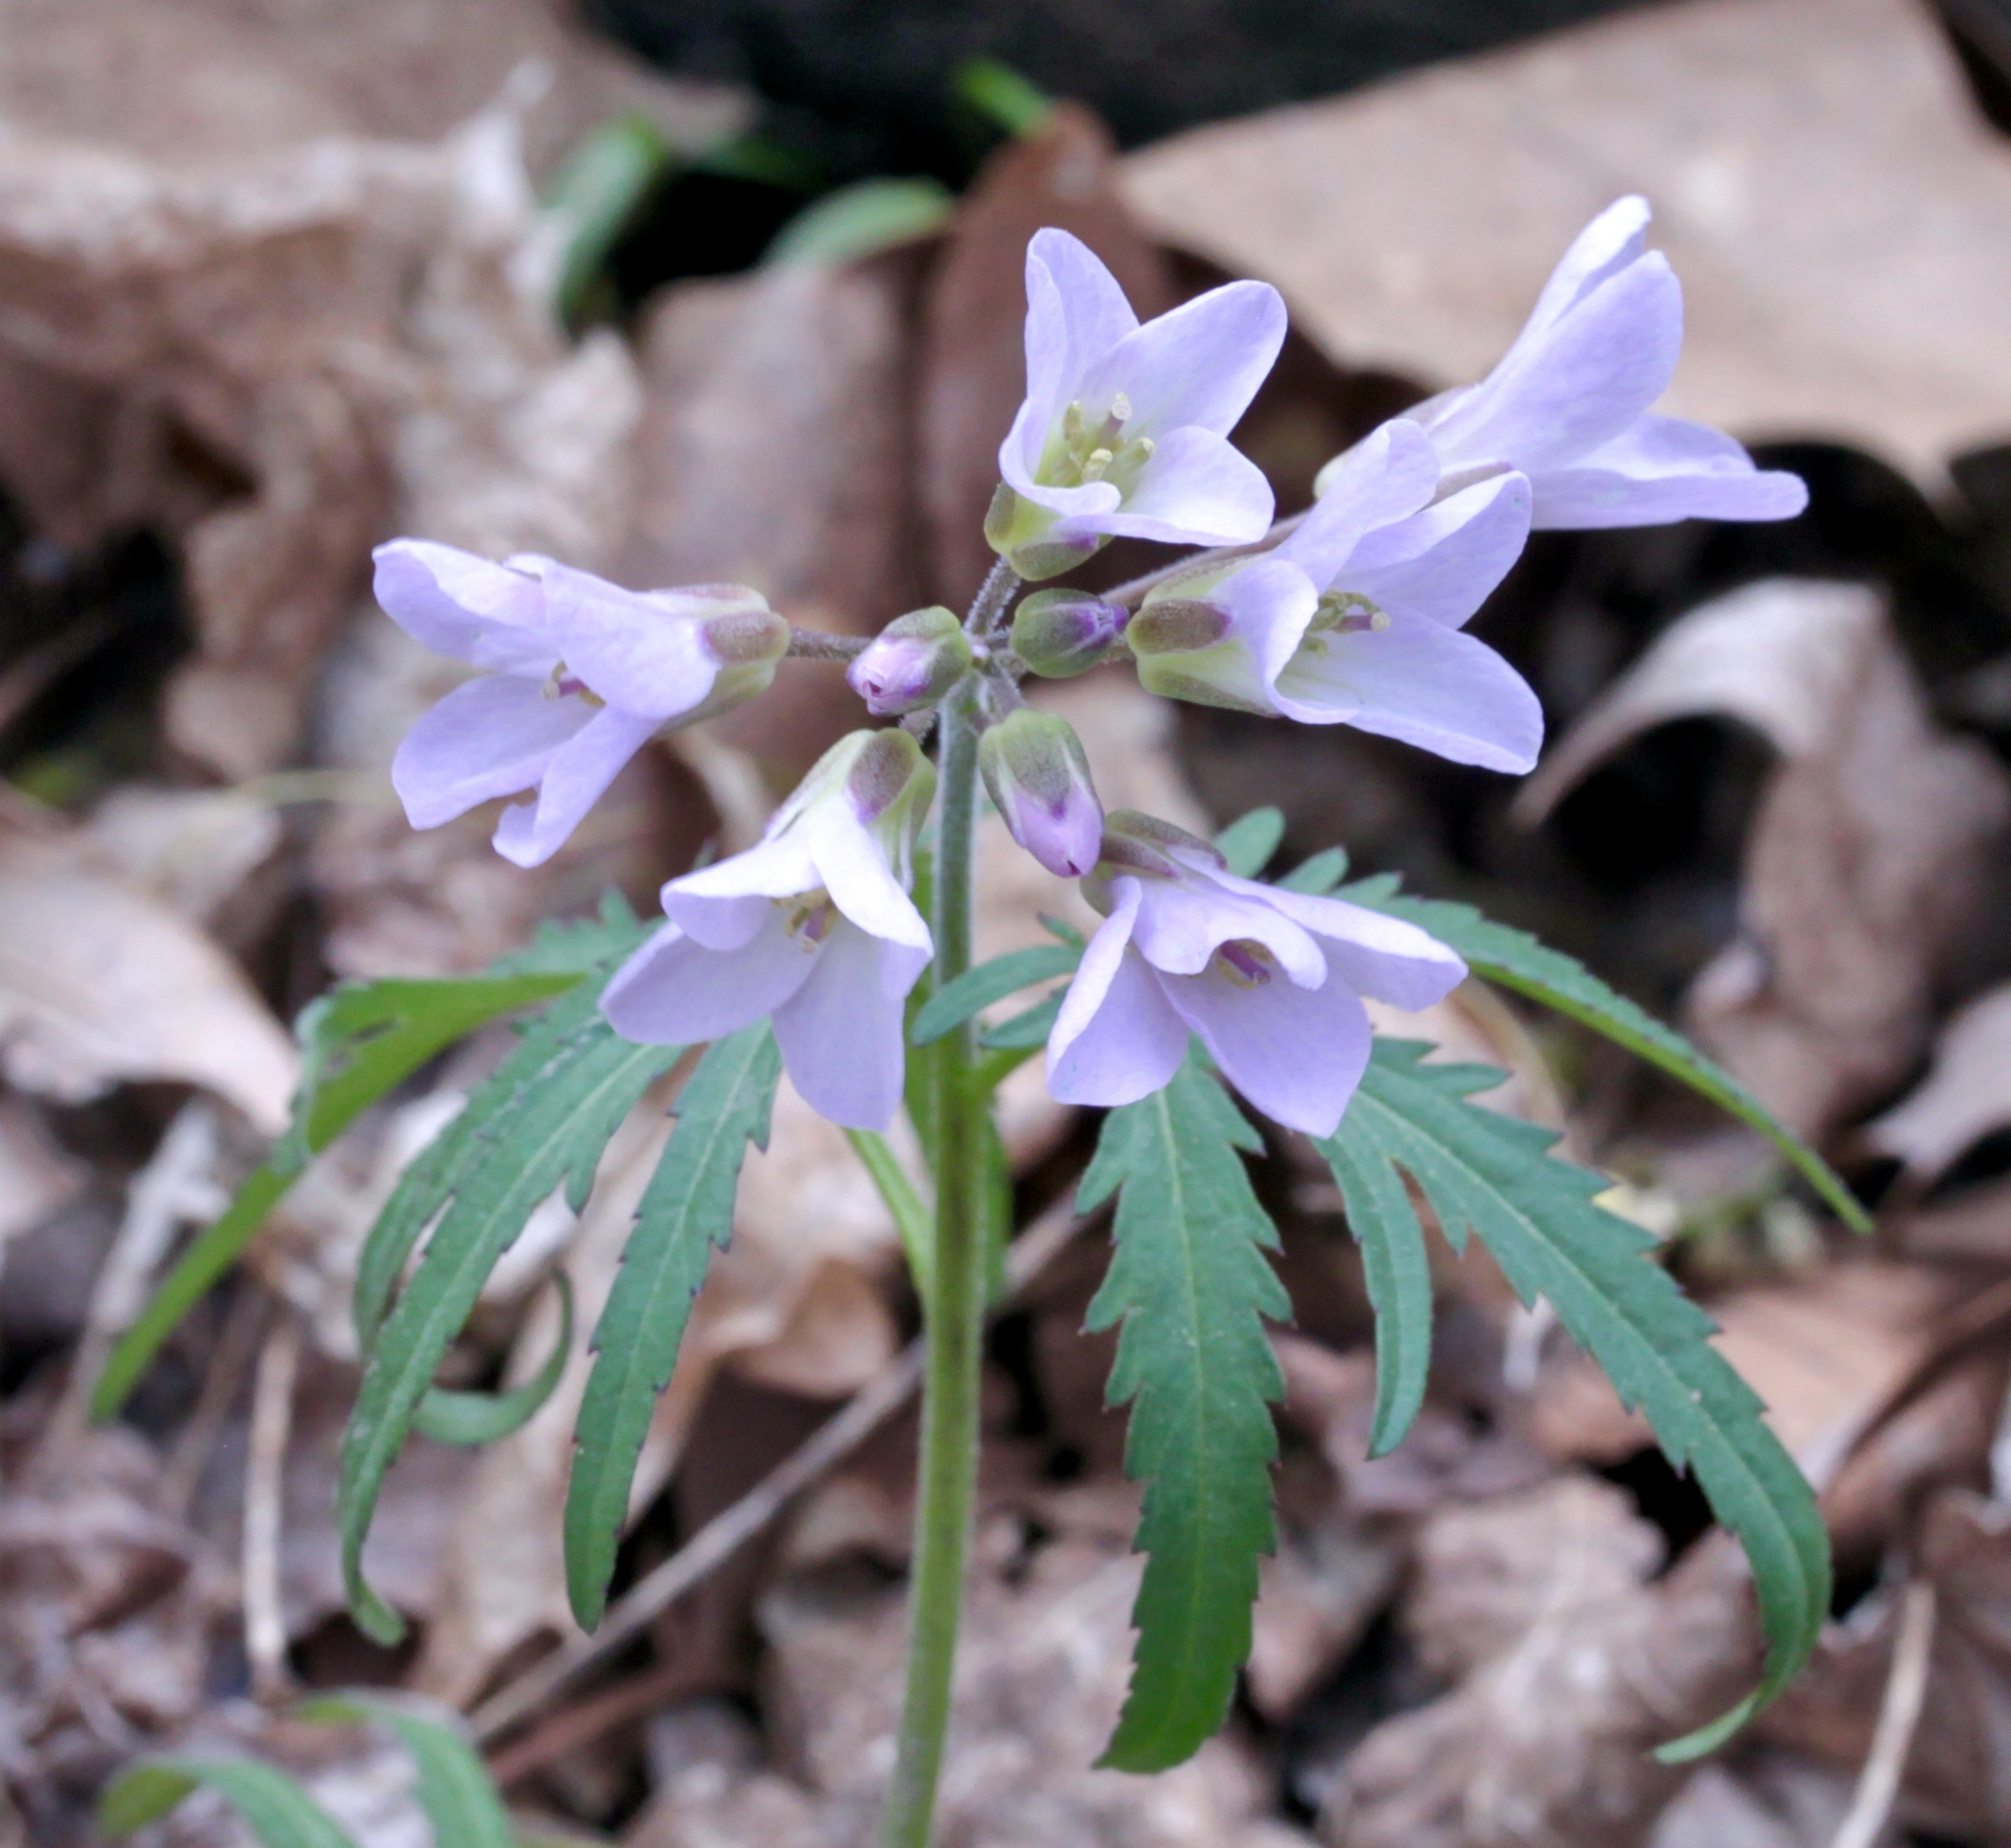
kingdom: Plantae
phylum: Tracheophyta
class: Magnoliopsida
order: Brassicales
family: Brassicaceae
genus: Cardamine
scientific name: Cardamine concatenata
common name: Cut-leaf toothcup
